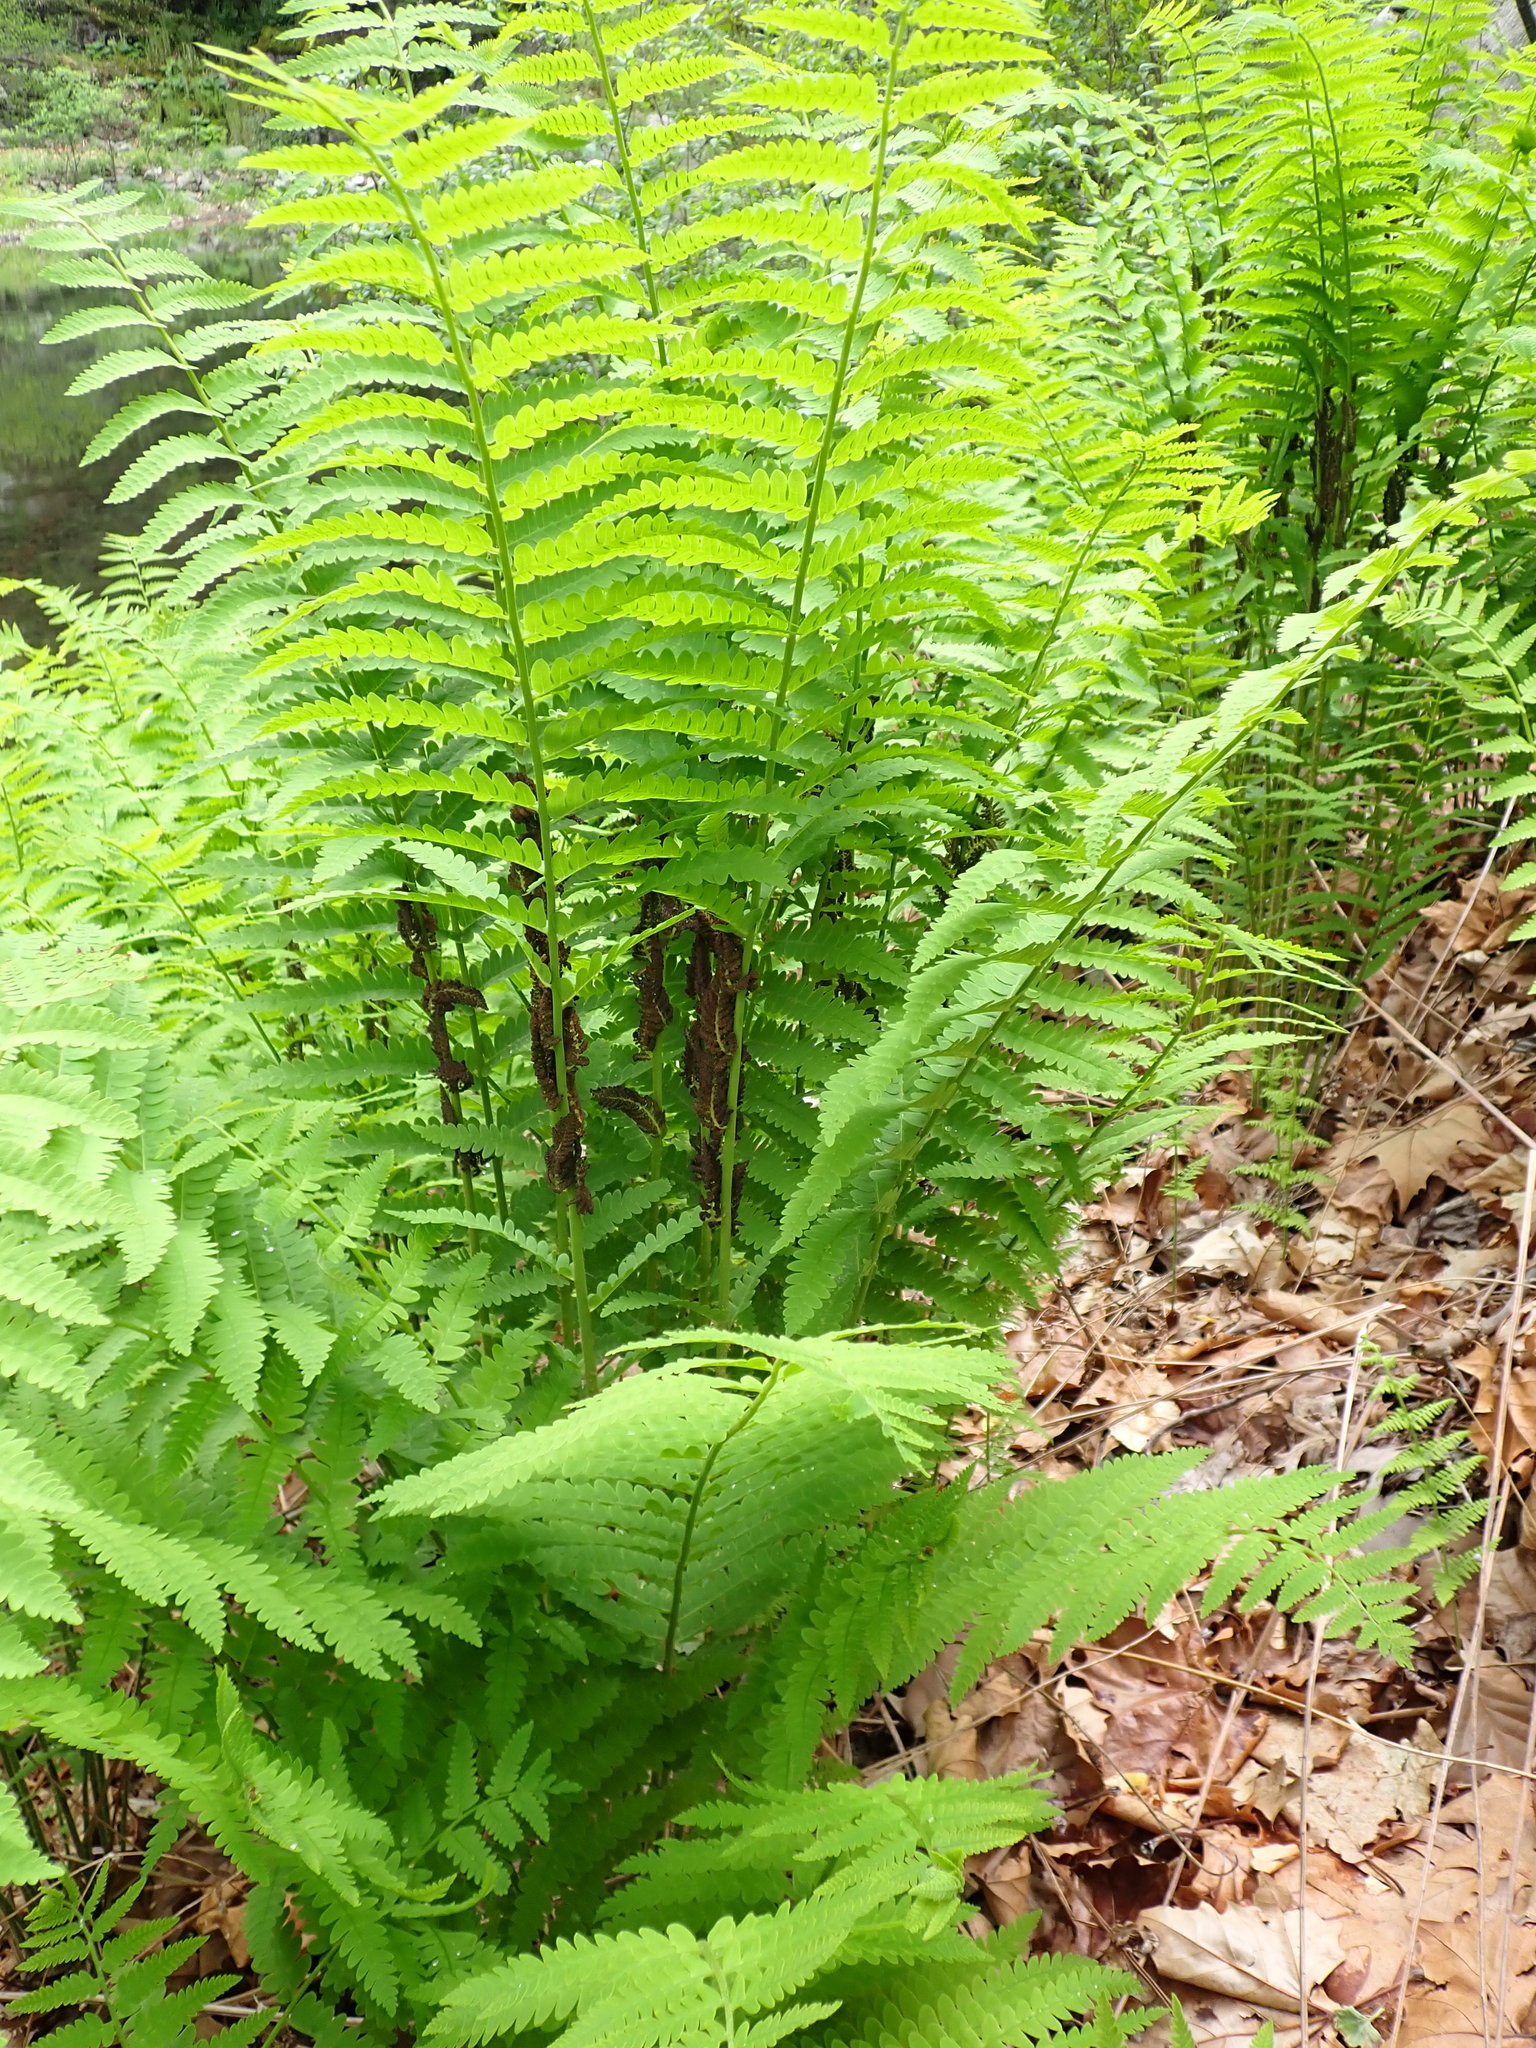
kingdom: Plantae
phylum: Tracheophyta
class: Polypodiopsida
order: Osmundales
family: Osmundaceae
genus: Claytosmunda
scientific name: Claytosmunda claytoniana
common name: Clayton's fern
